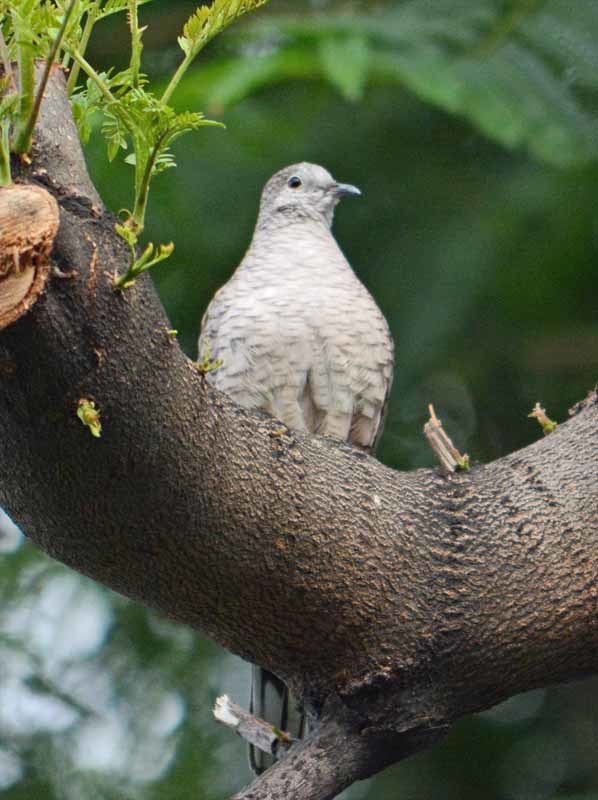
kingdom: Animalia
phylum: Chordata
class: Aves
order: Columbiformes
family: Columbidae
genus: Columbina
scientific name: Columbina inca
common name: Inca dove
